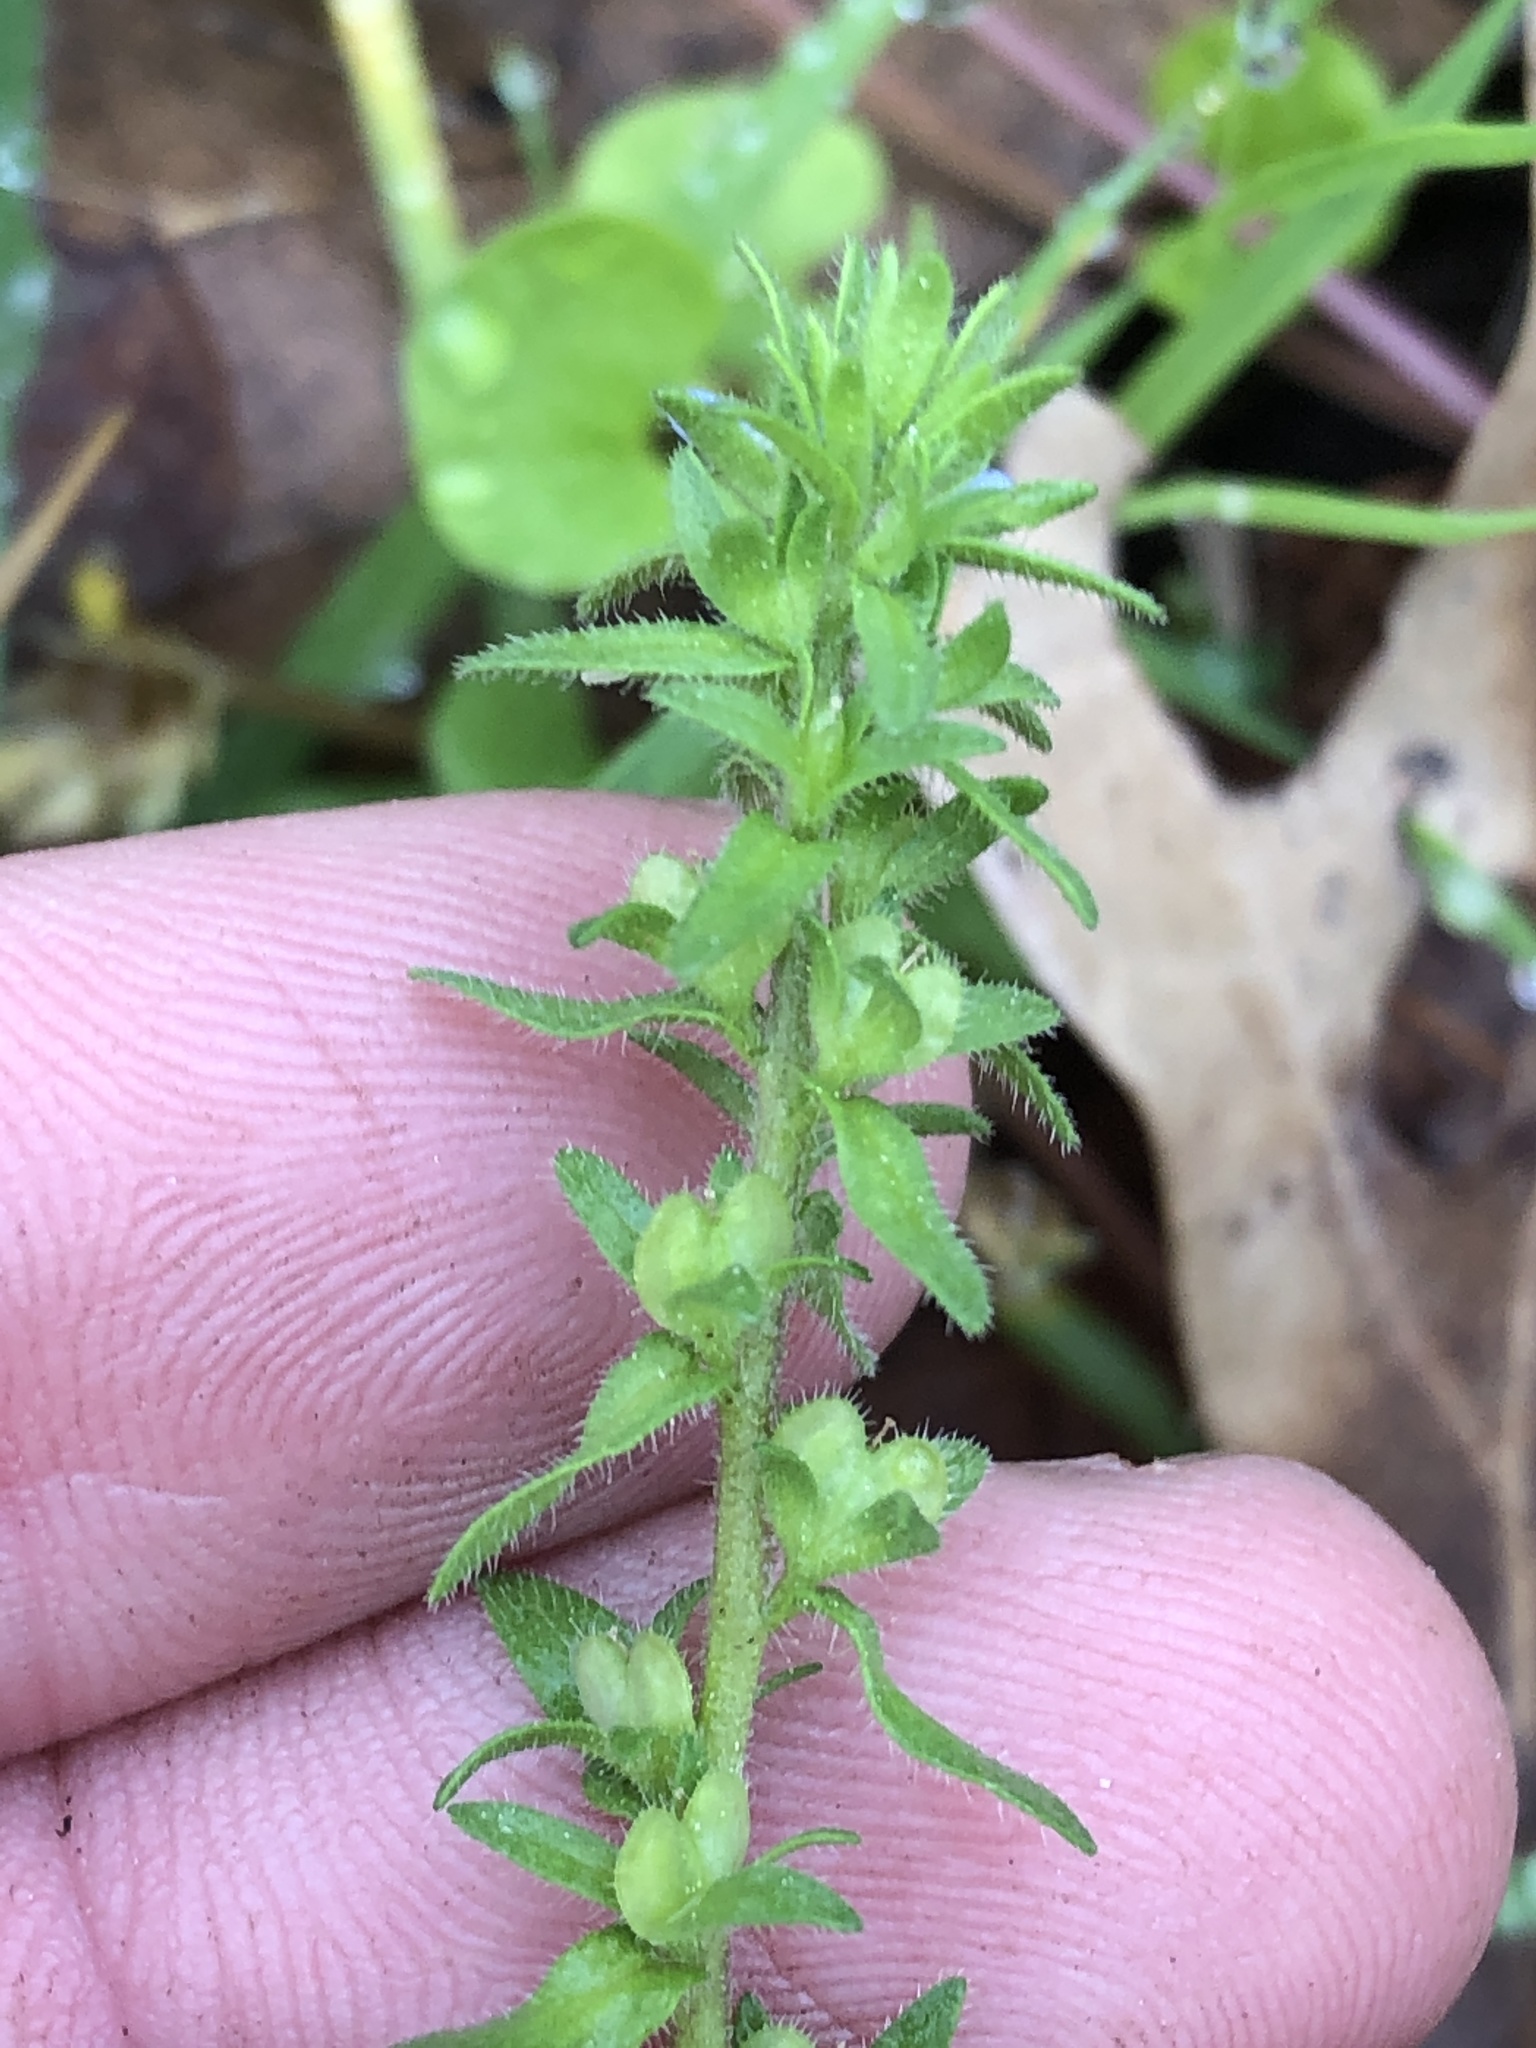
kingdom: Plantae
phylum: Tracheophyta
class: Magnoliopsida
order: Lamiales
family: Plantaginaceae
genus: Veronica
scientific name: Veronica arvensis
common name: Corn speedwell
